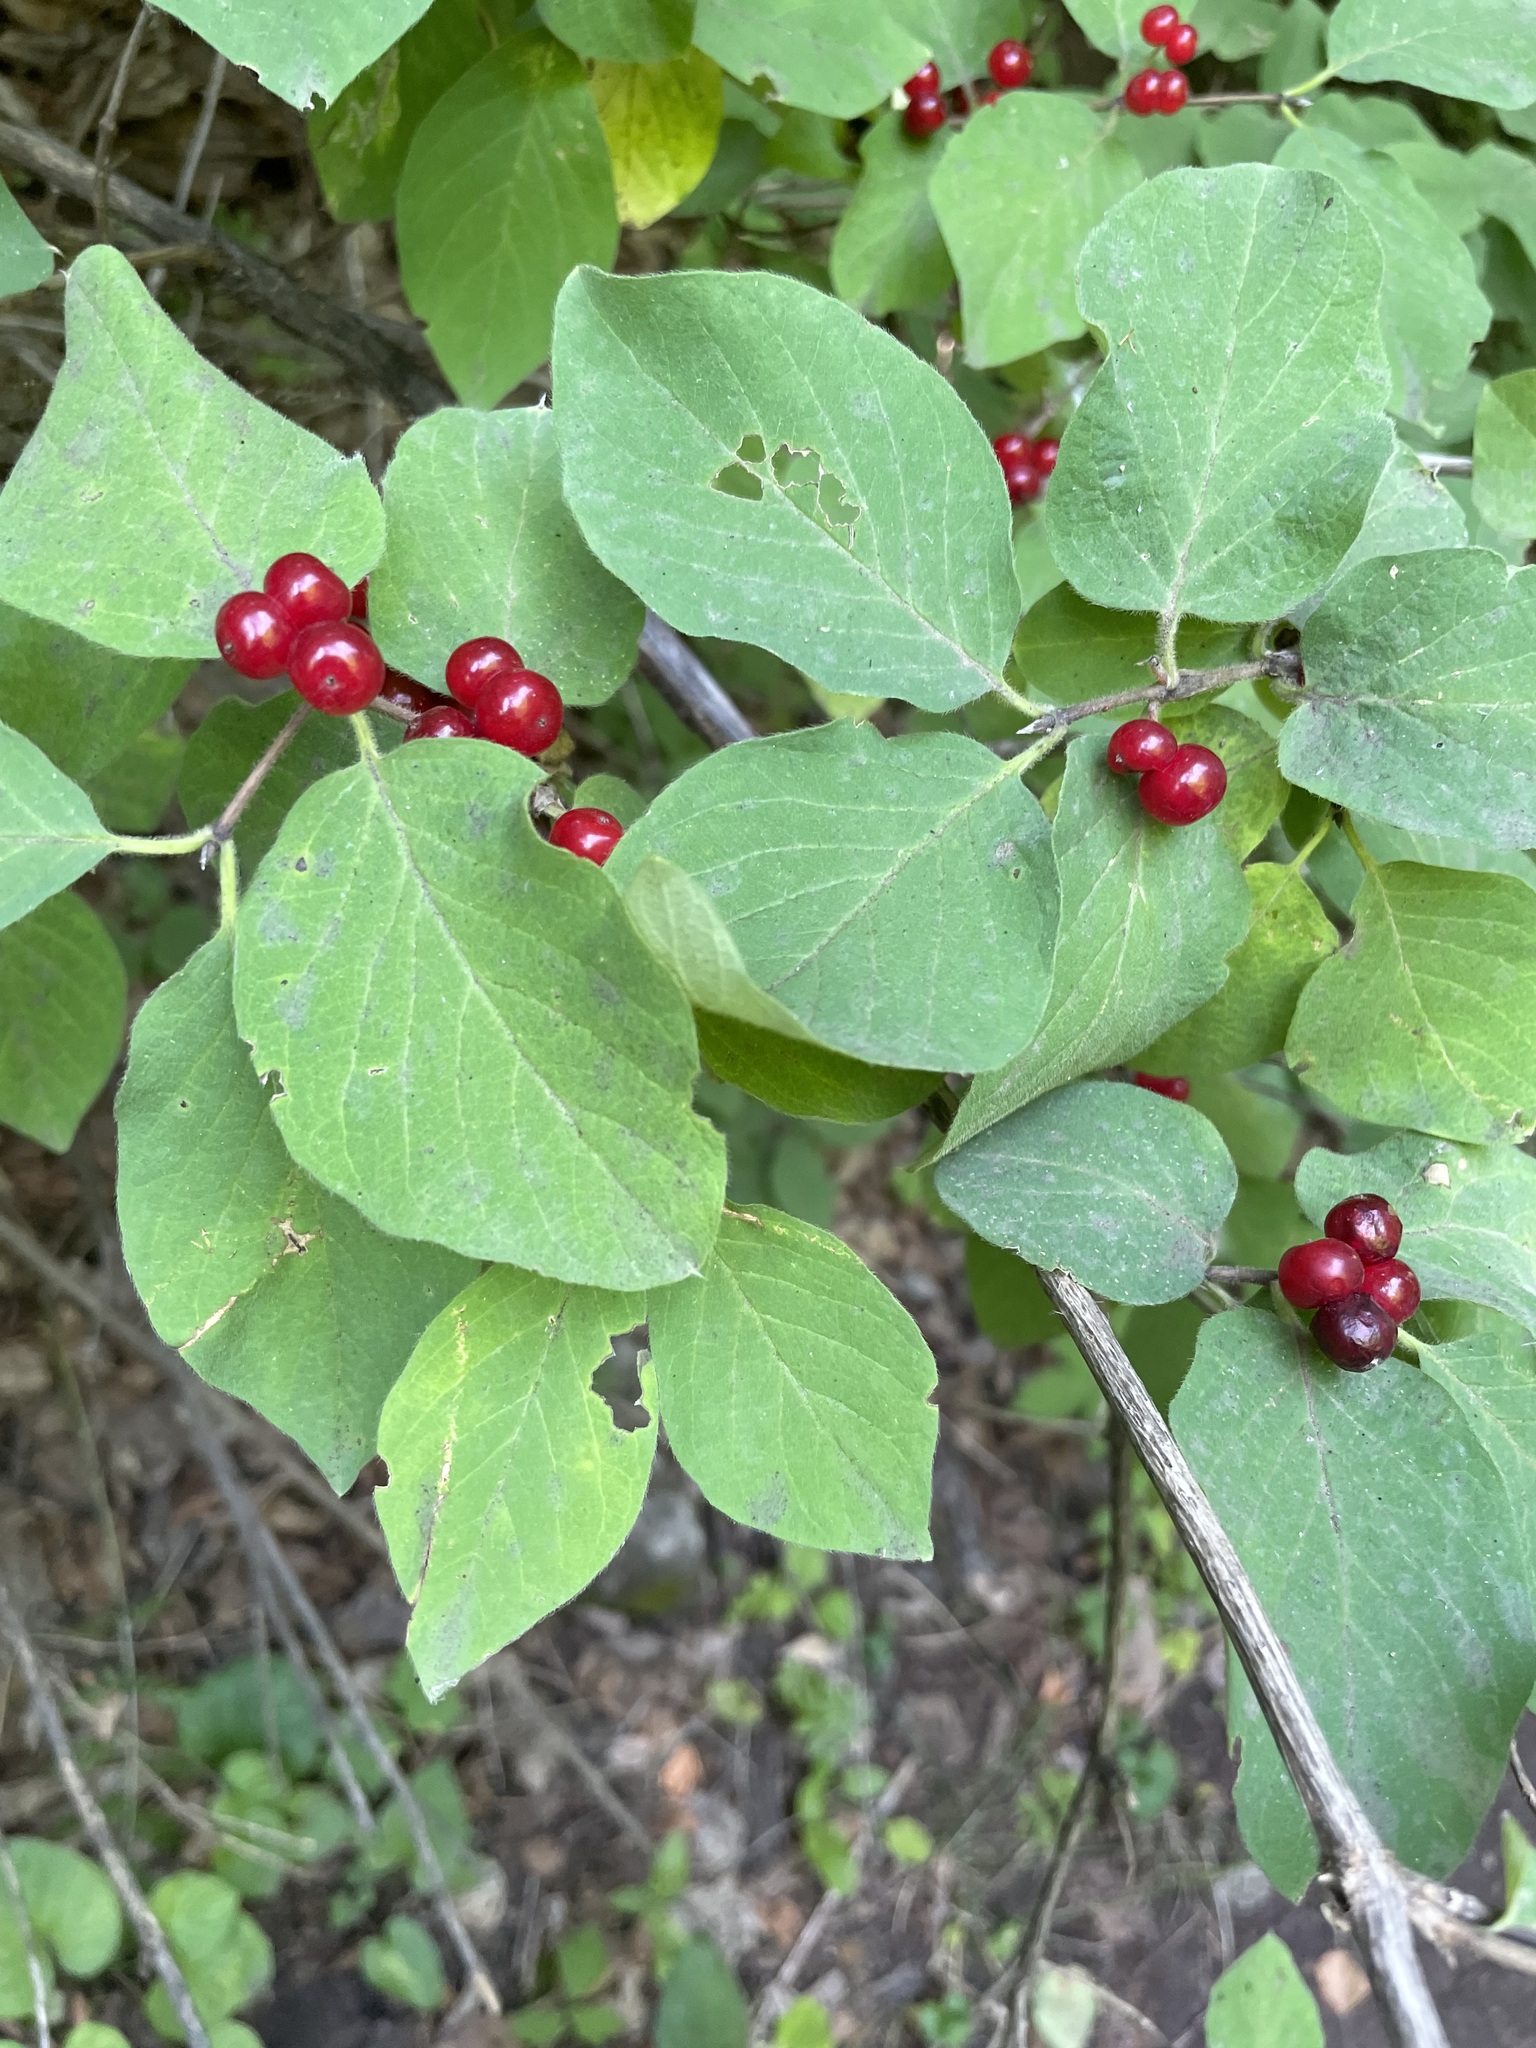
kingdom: Plantae
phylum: Tracheophyta
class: Magnoliopsida
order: Dipsacales
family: Caprifoliaceae
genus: Lonicera
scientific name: Lonicera xylosteum
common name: Fly honeysuckle
